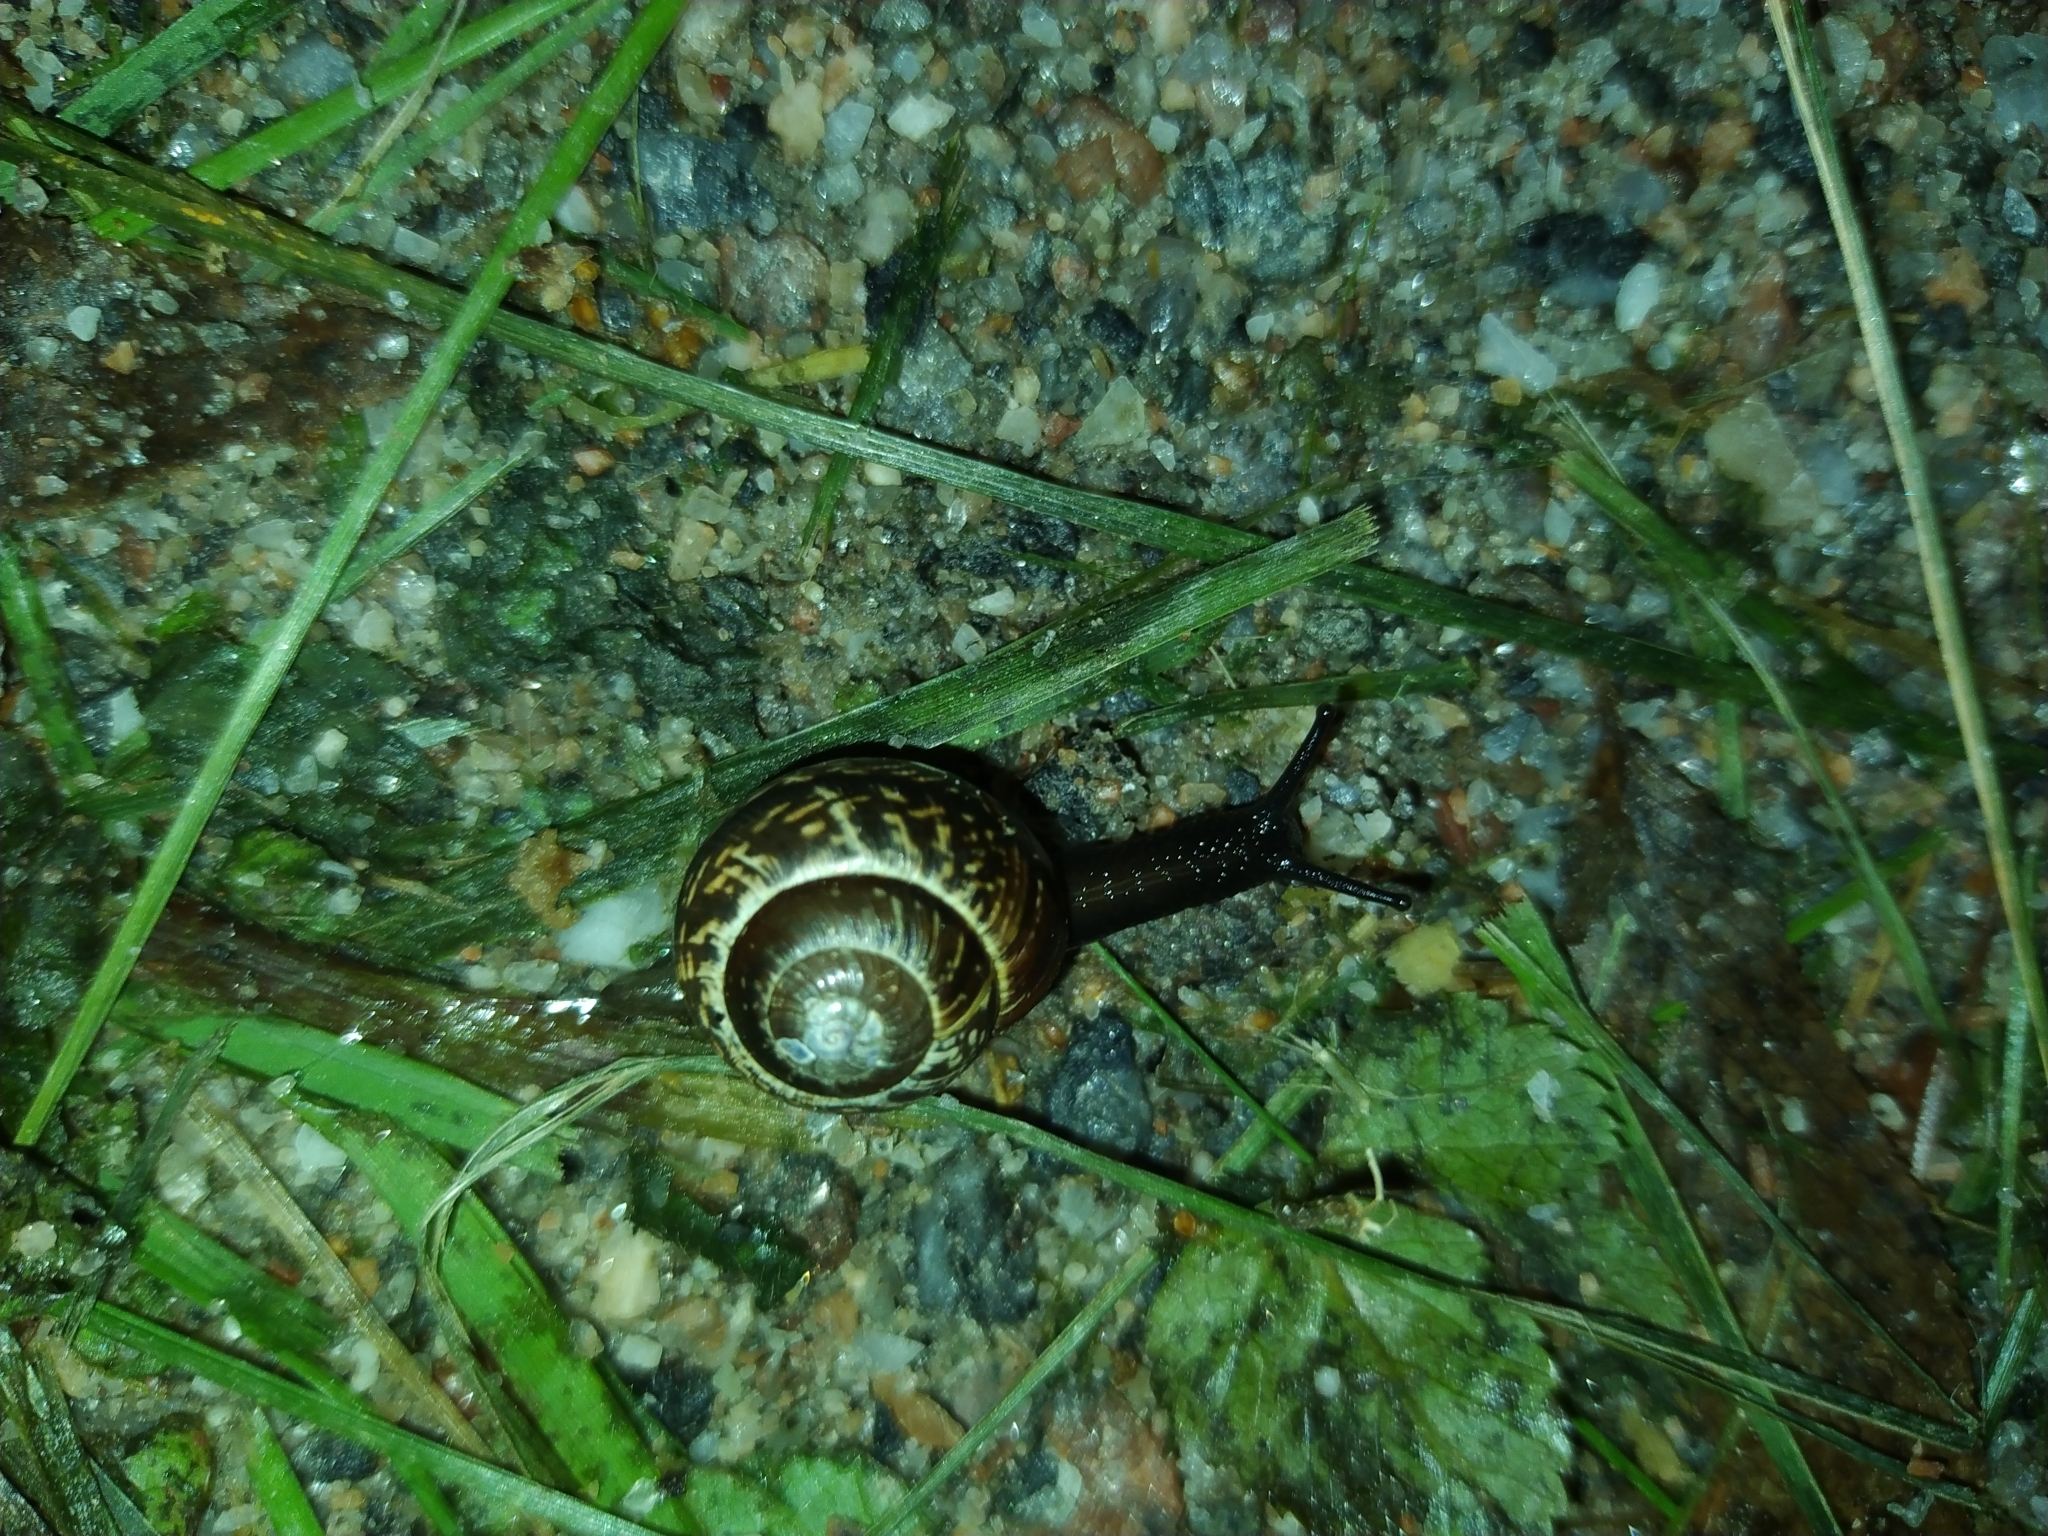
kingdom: Animalia
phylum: Mollusca
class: Gastropoda
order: Stylommatophora
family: Helicidae
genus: Arianta
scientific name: Arianta arbustorum
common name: Copse snail
